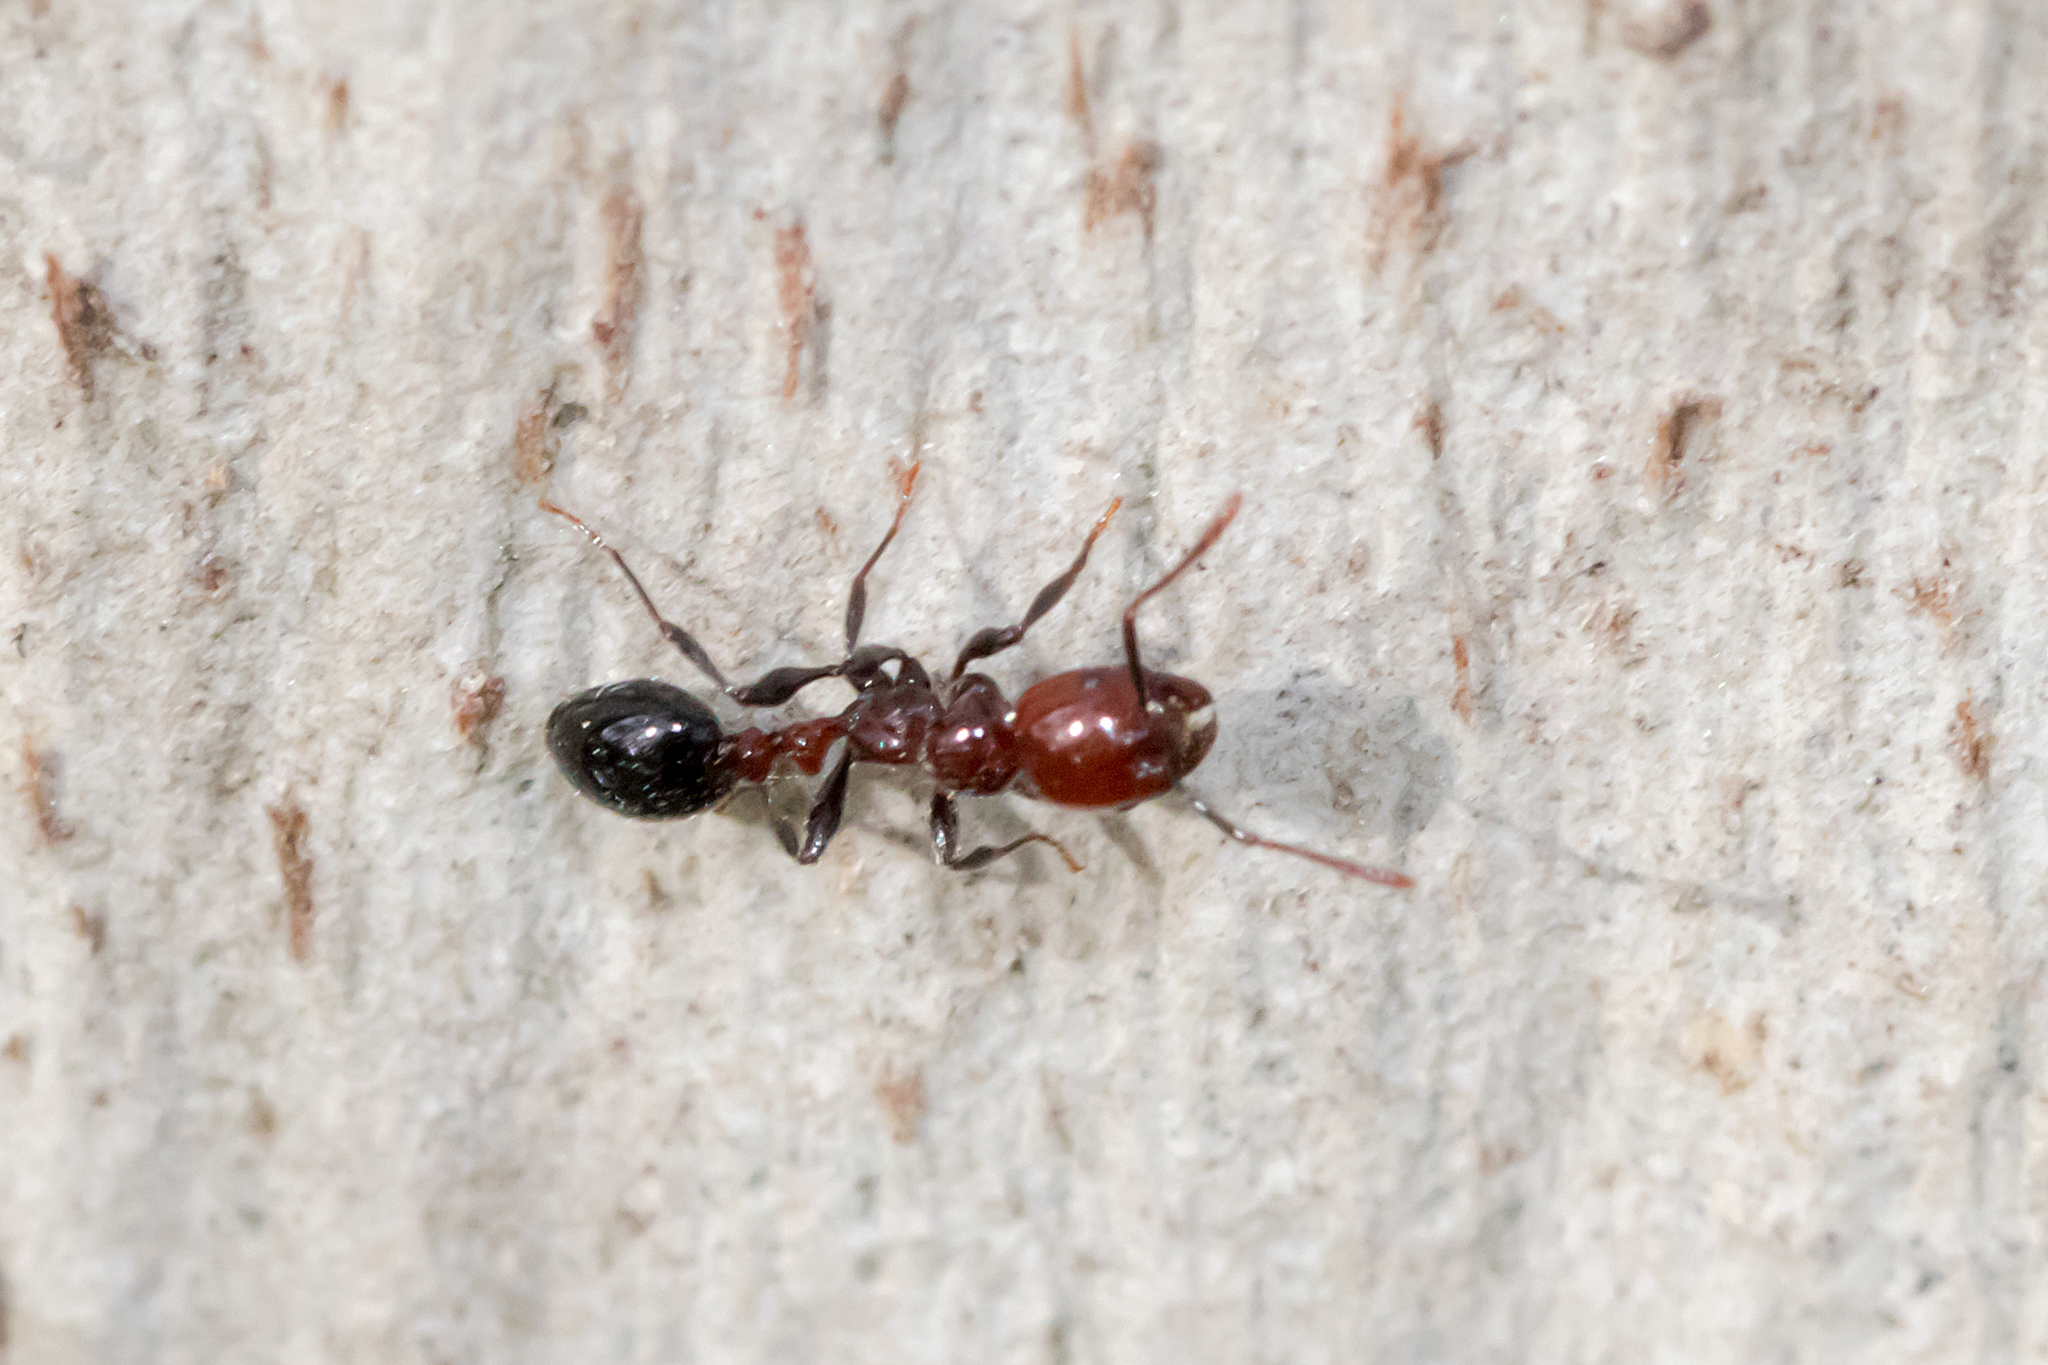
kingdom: Animalia
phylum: Arthropoda
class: Insecta
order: Hymenoptera
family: Formicidae
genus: Chelaner
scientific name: Chelaner
